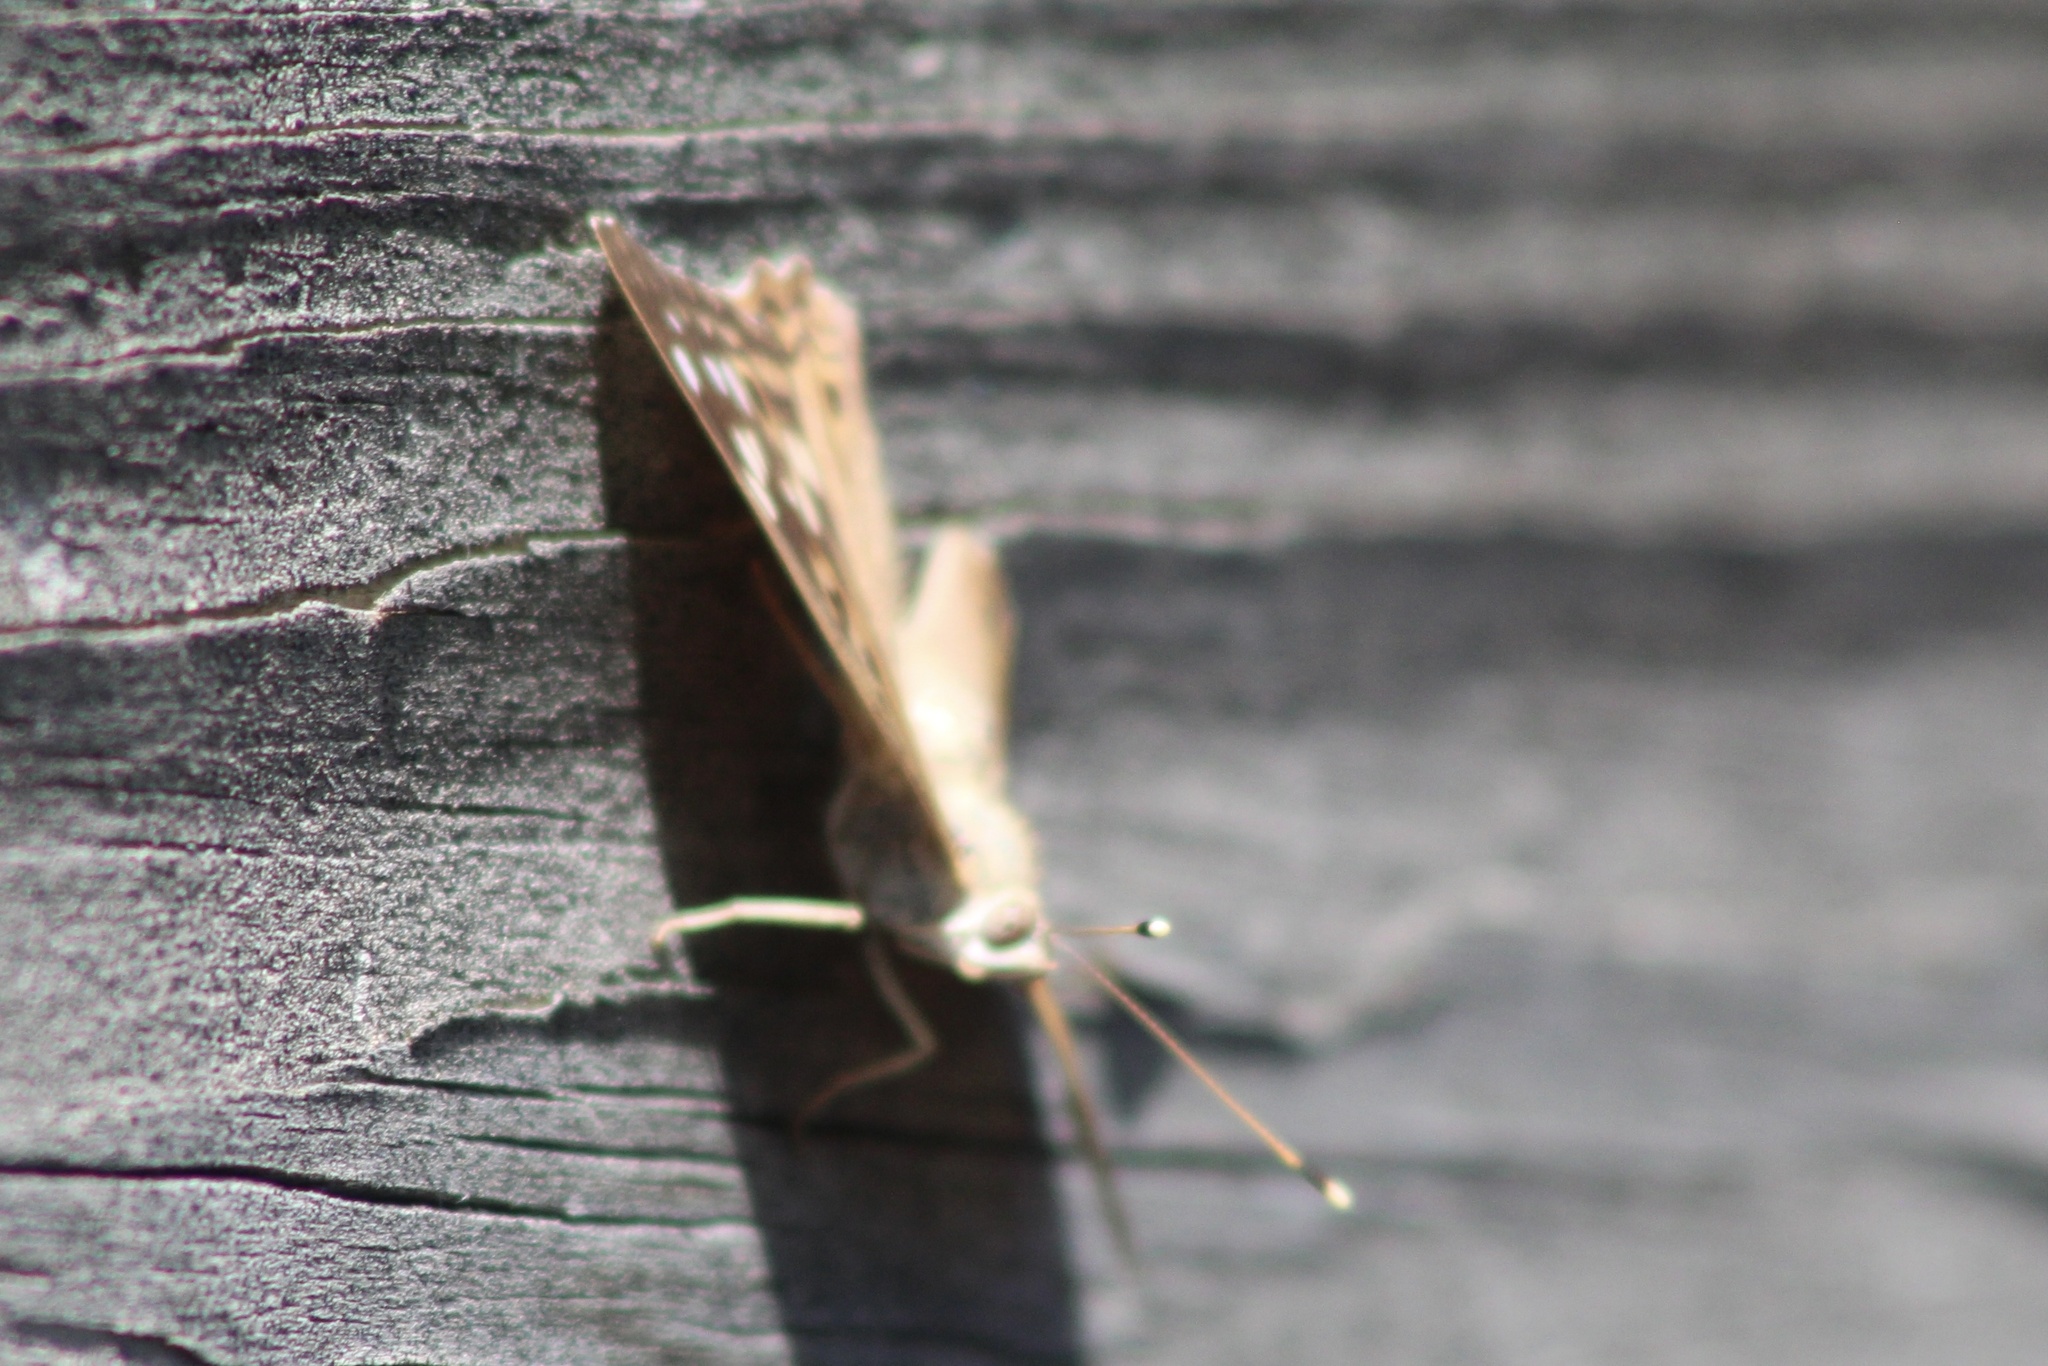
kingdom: Animalia
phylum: Arthropoda
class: Insecta
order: Lepidoptera
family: Nymphalidae
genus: Asterocampa
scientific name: Asterocampa celtis
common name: Hackberry emperor
